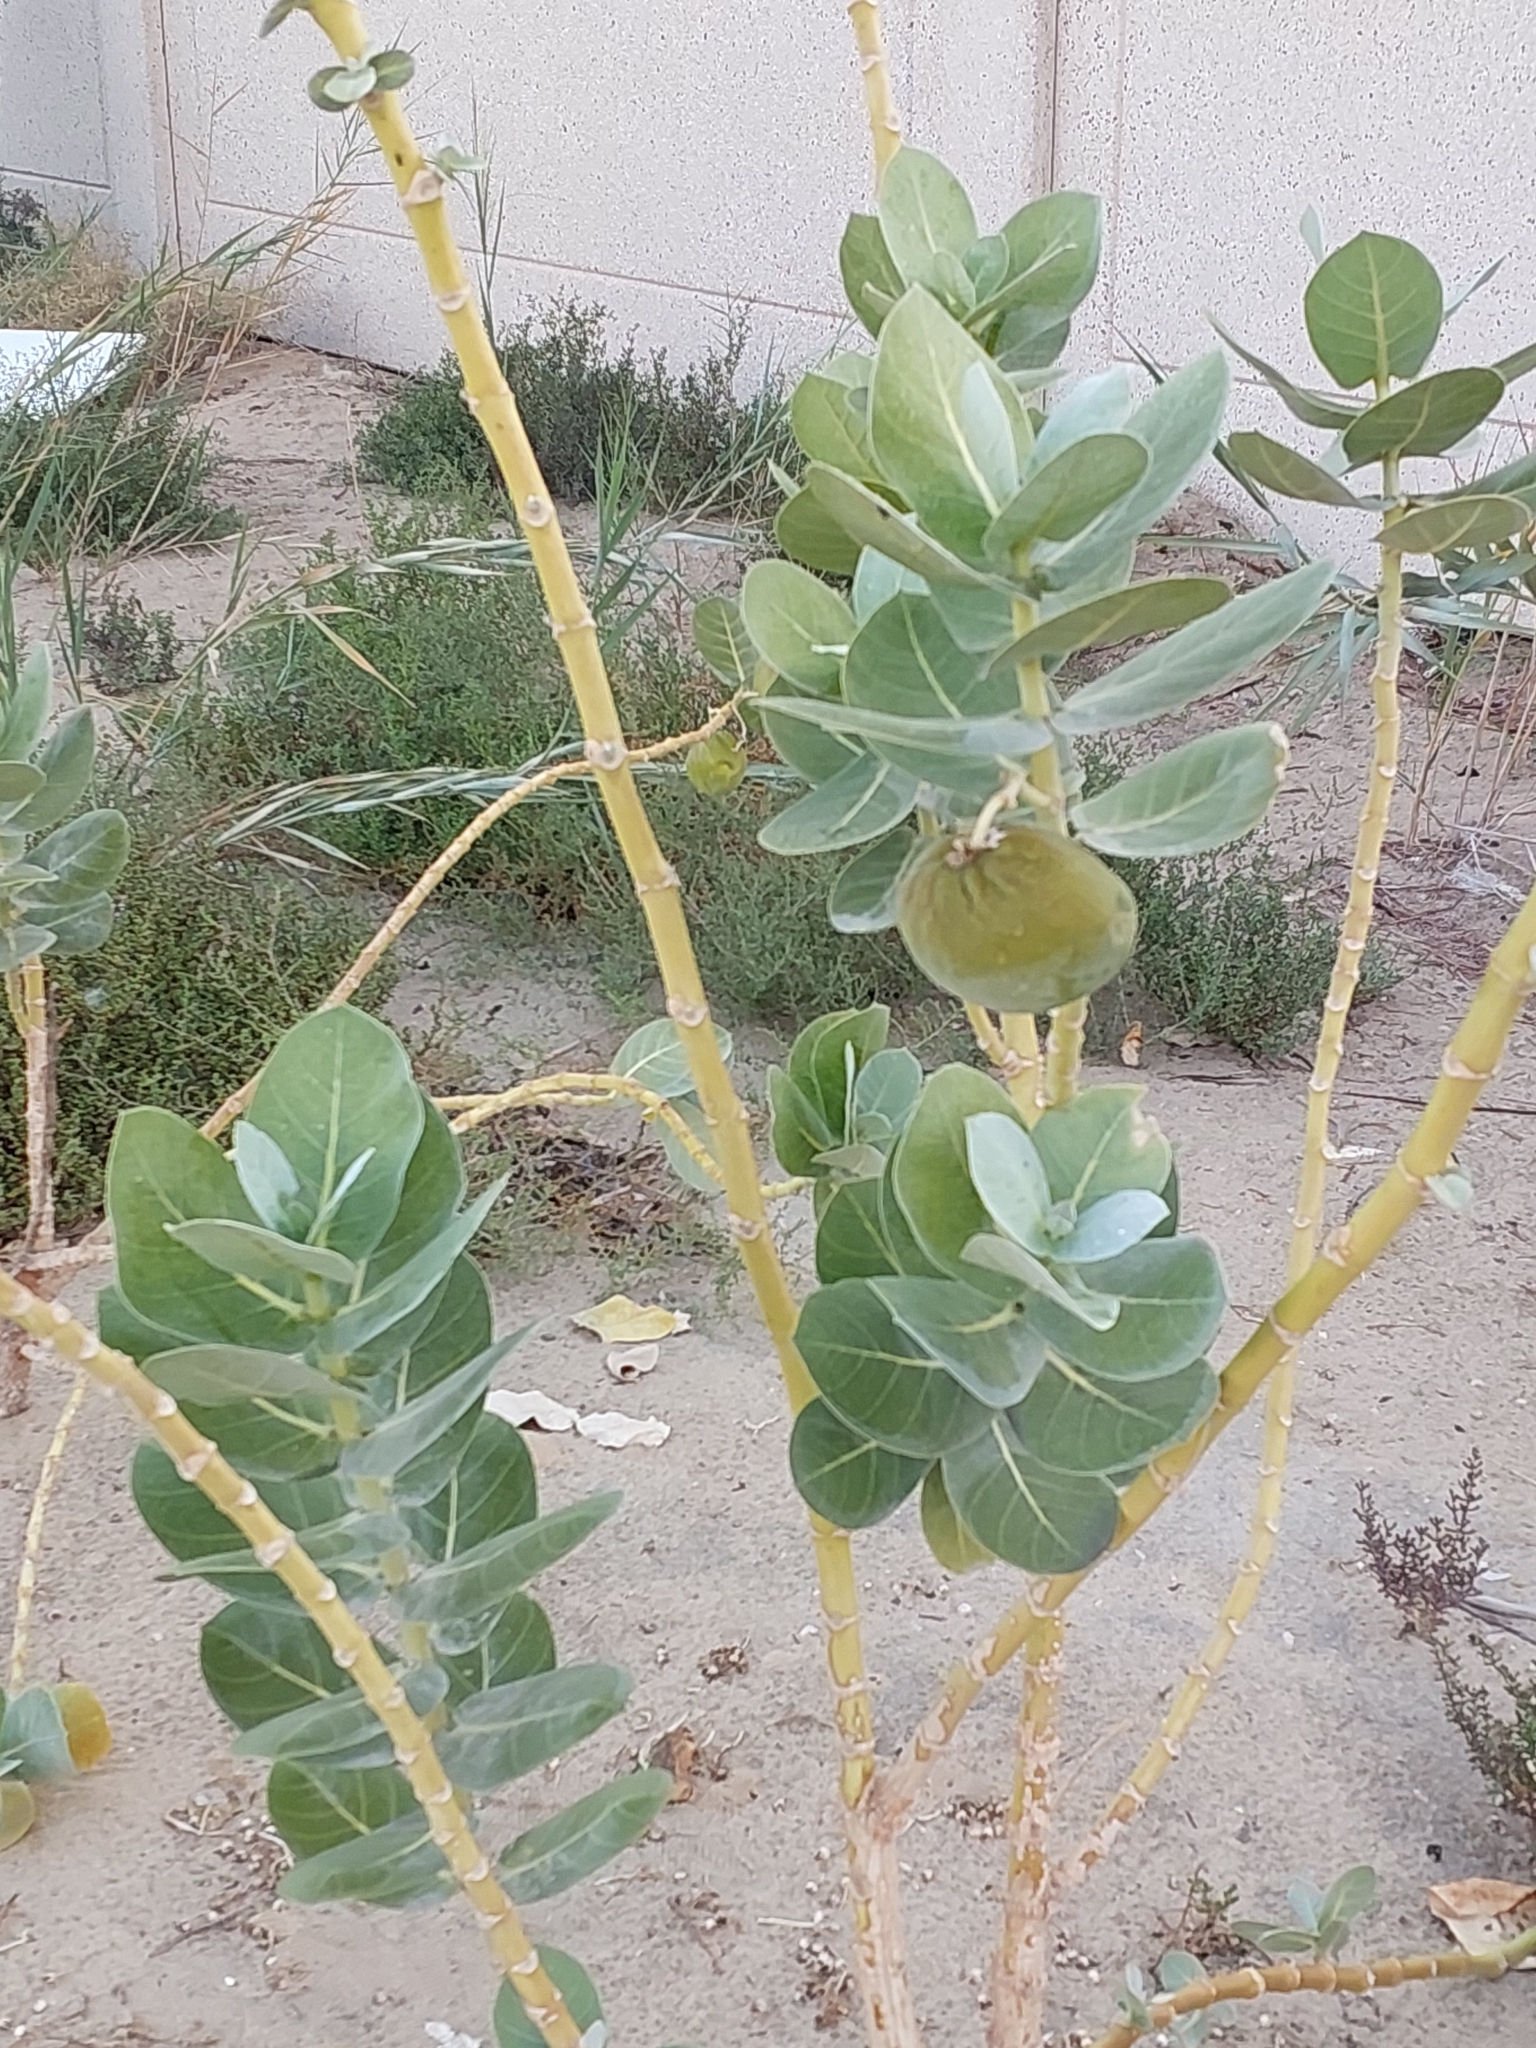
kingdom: Plantae
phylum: Tracheophyta
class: Magnoliopsida
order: Gentianales
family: Apocynaceae
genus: Calotropis
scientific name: Calotropis procera
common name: Roostertree
